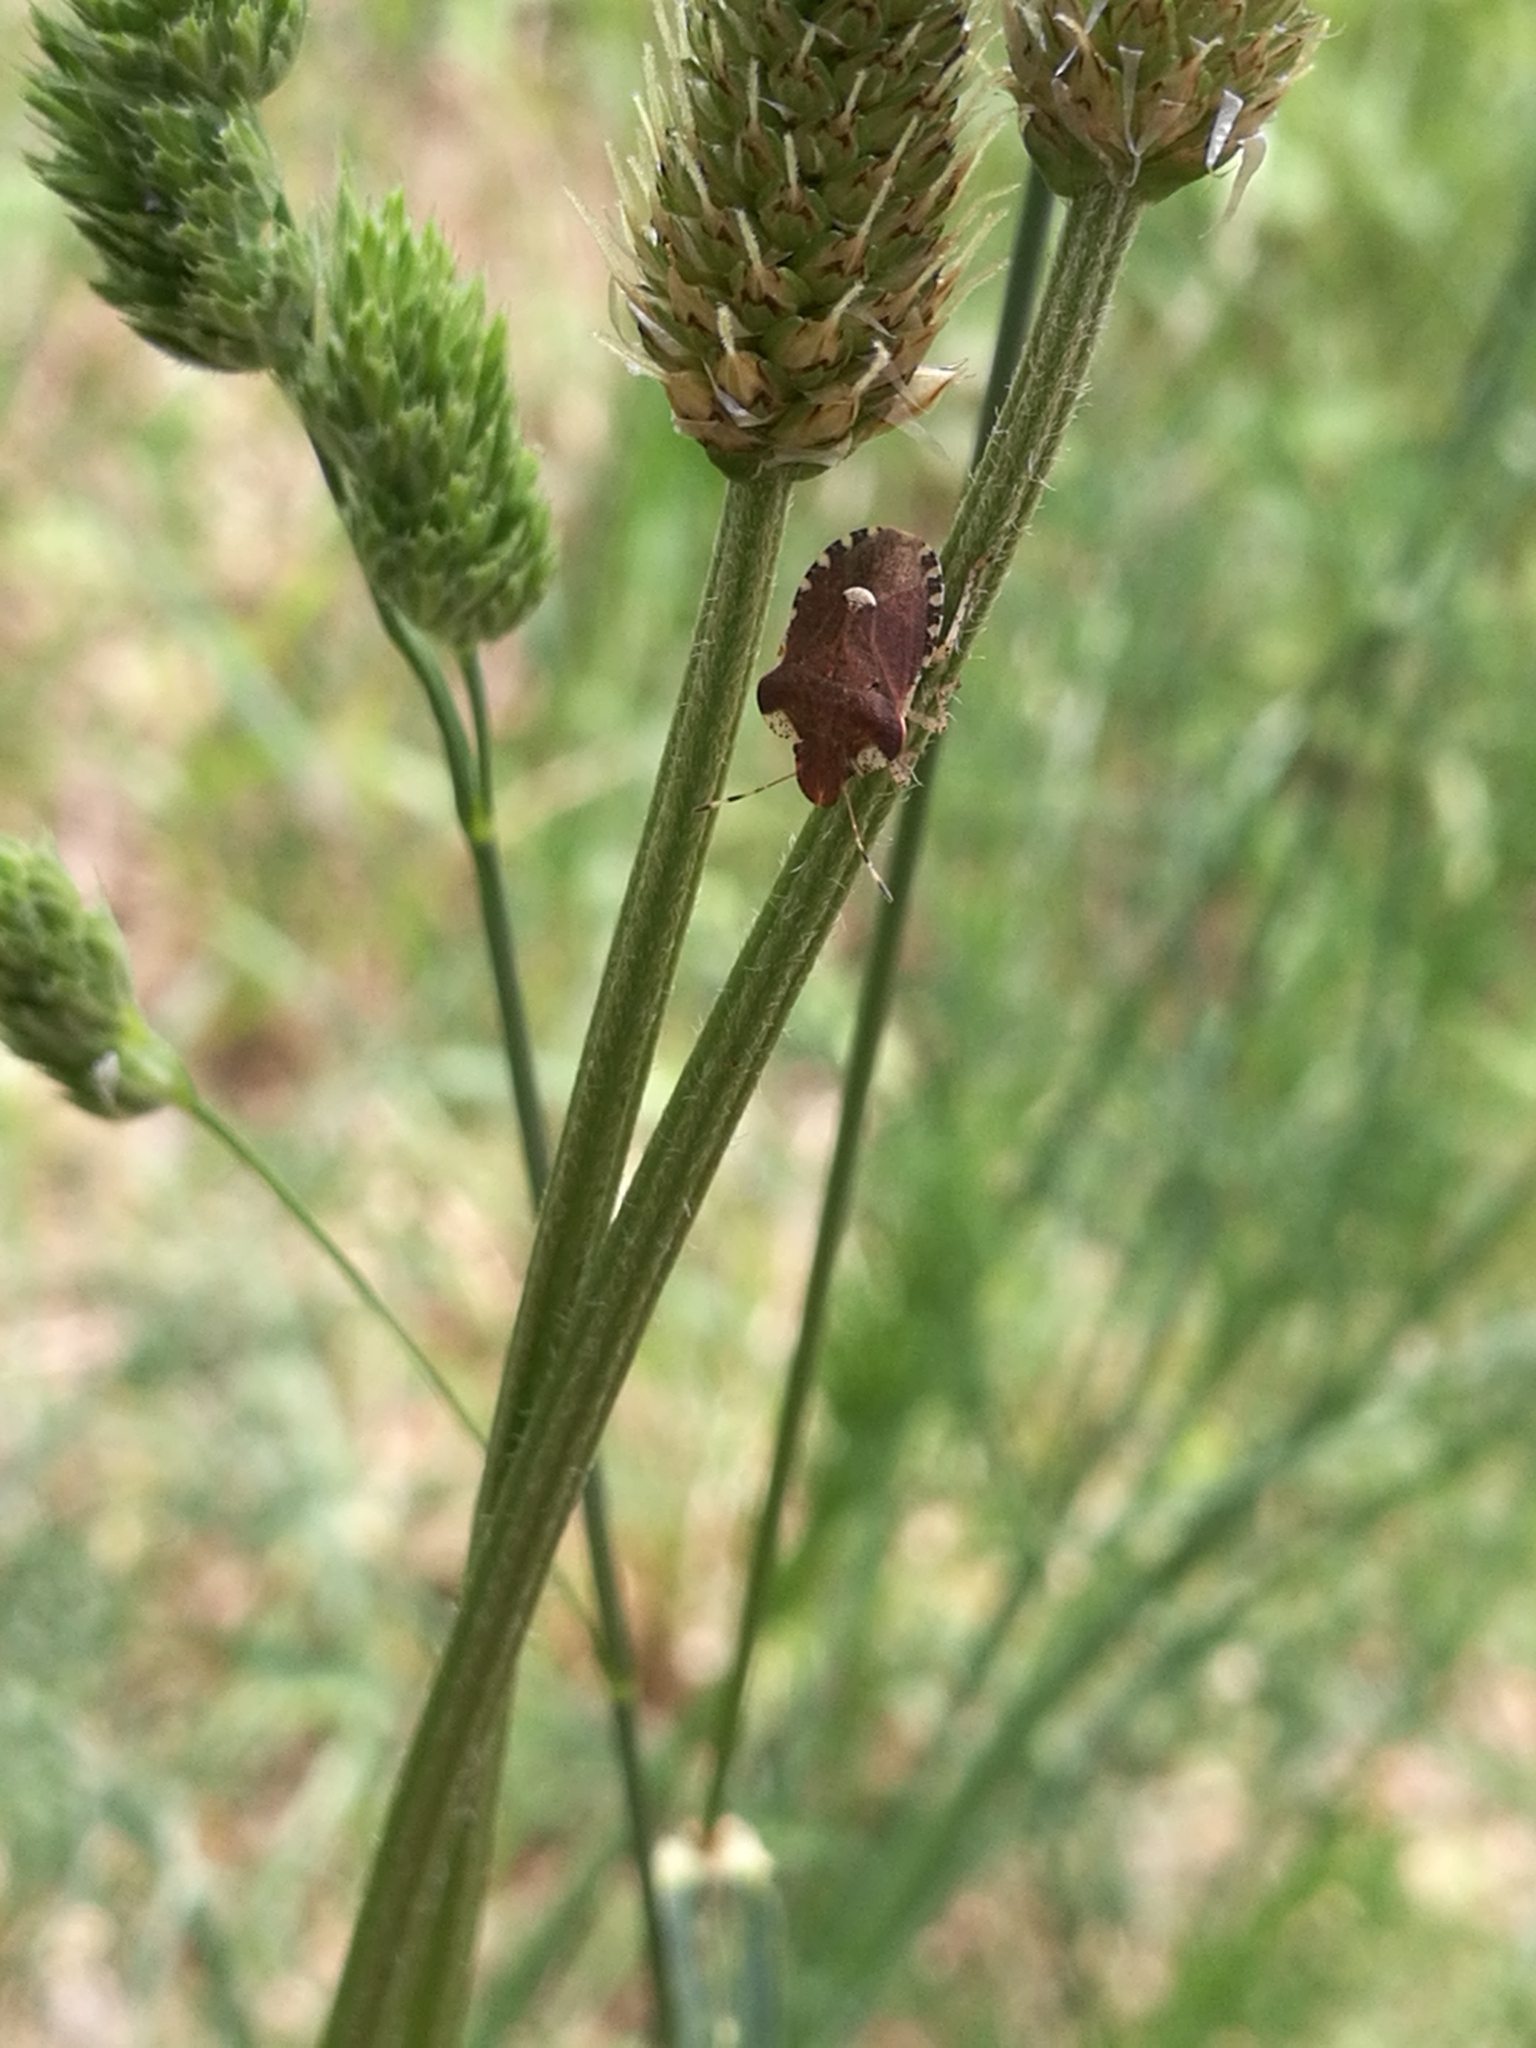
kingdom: Animalia
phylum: Arthropoda
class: Insecta
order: Hemiptera
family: Pentatomidae
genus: Dyroderes
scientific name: Dyroderes umbraculatus
